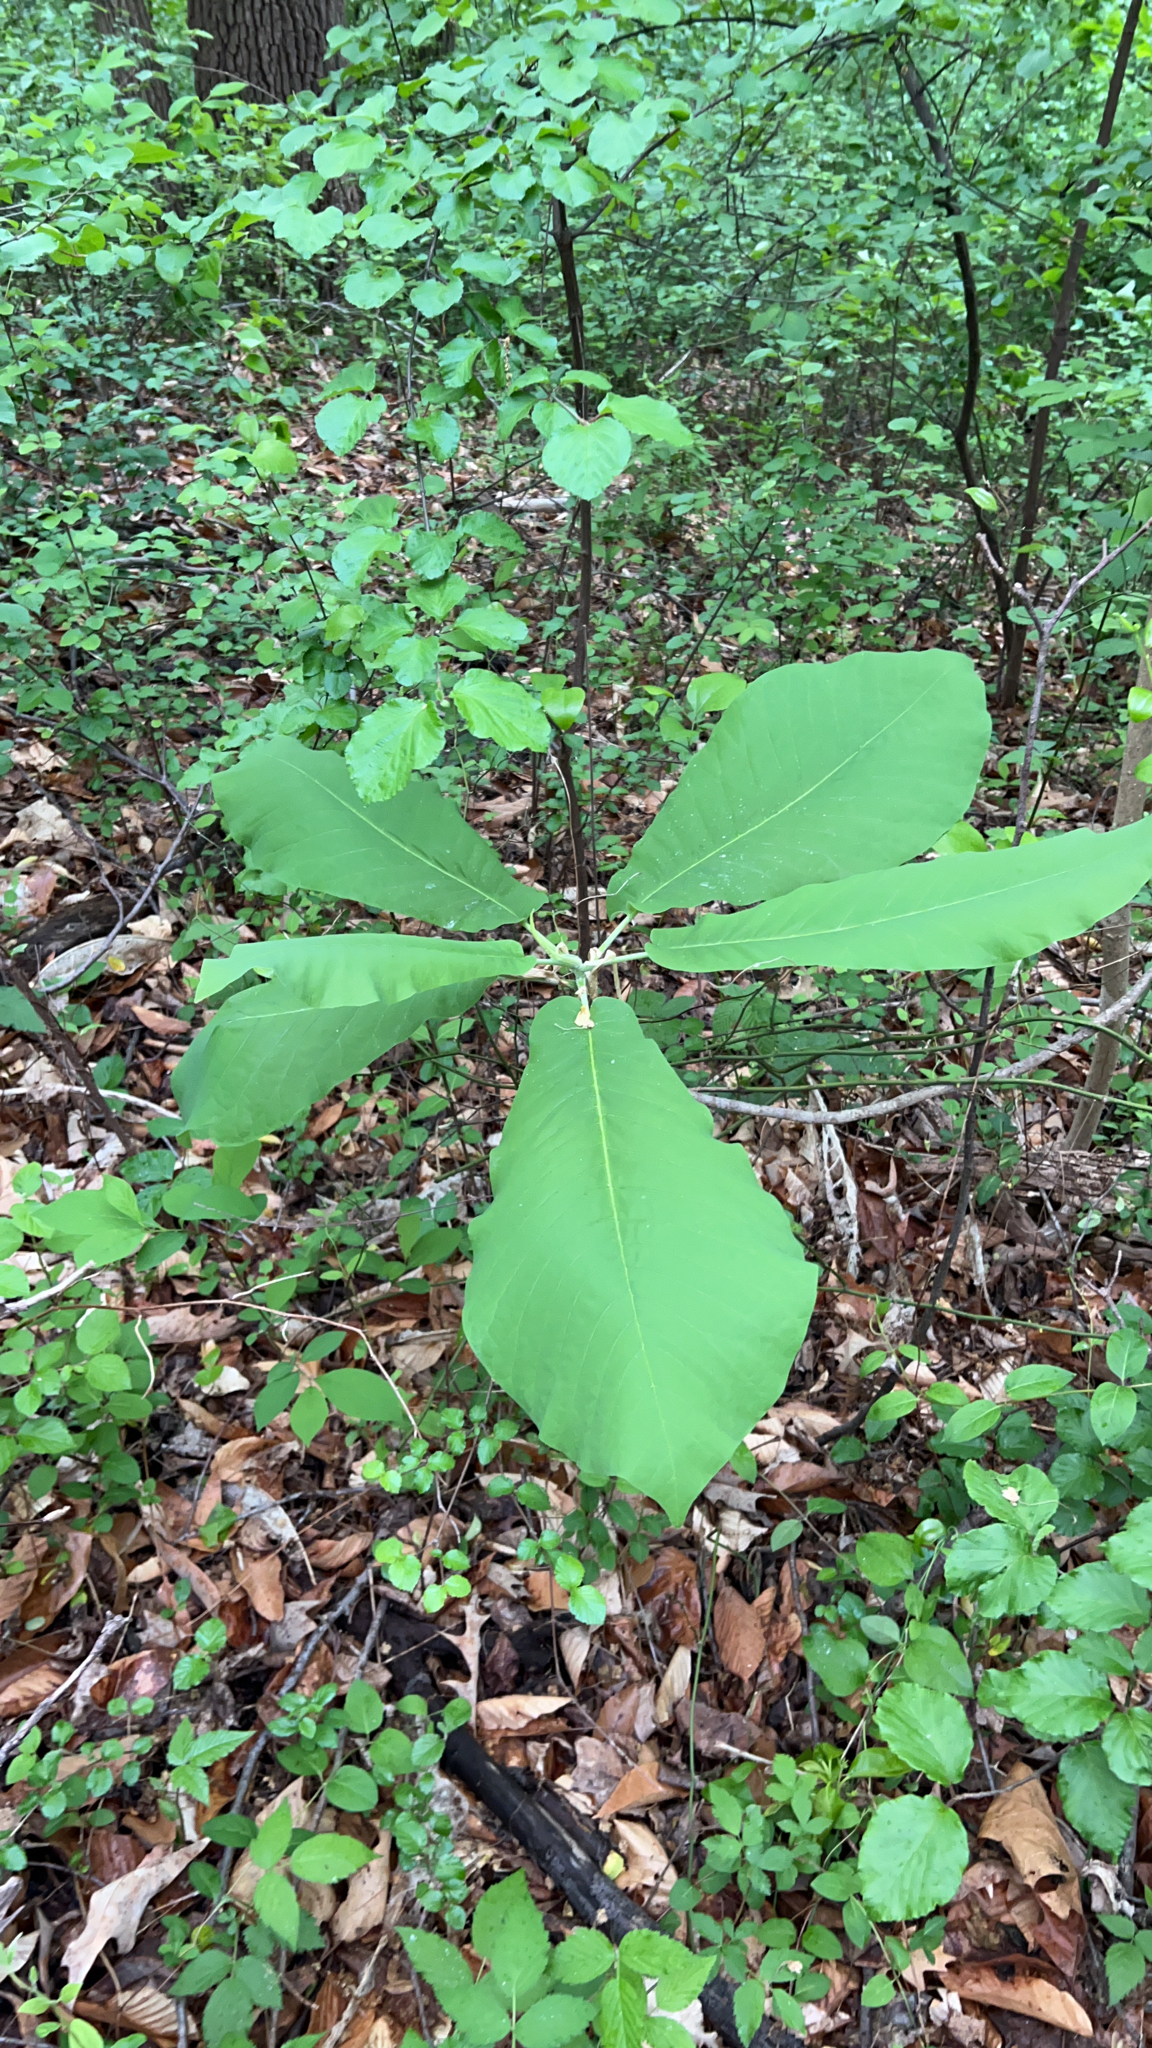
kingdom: Plantae
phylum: Tracheophyta
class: Magnoliopsida
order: Magnoliales
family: Magnoliaceae
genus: Magnolia
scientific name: Magnolia macrophylla
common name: Big-leaf magnolia
